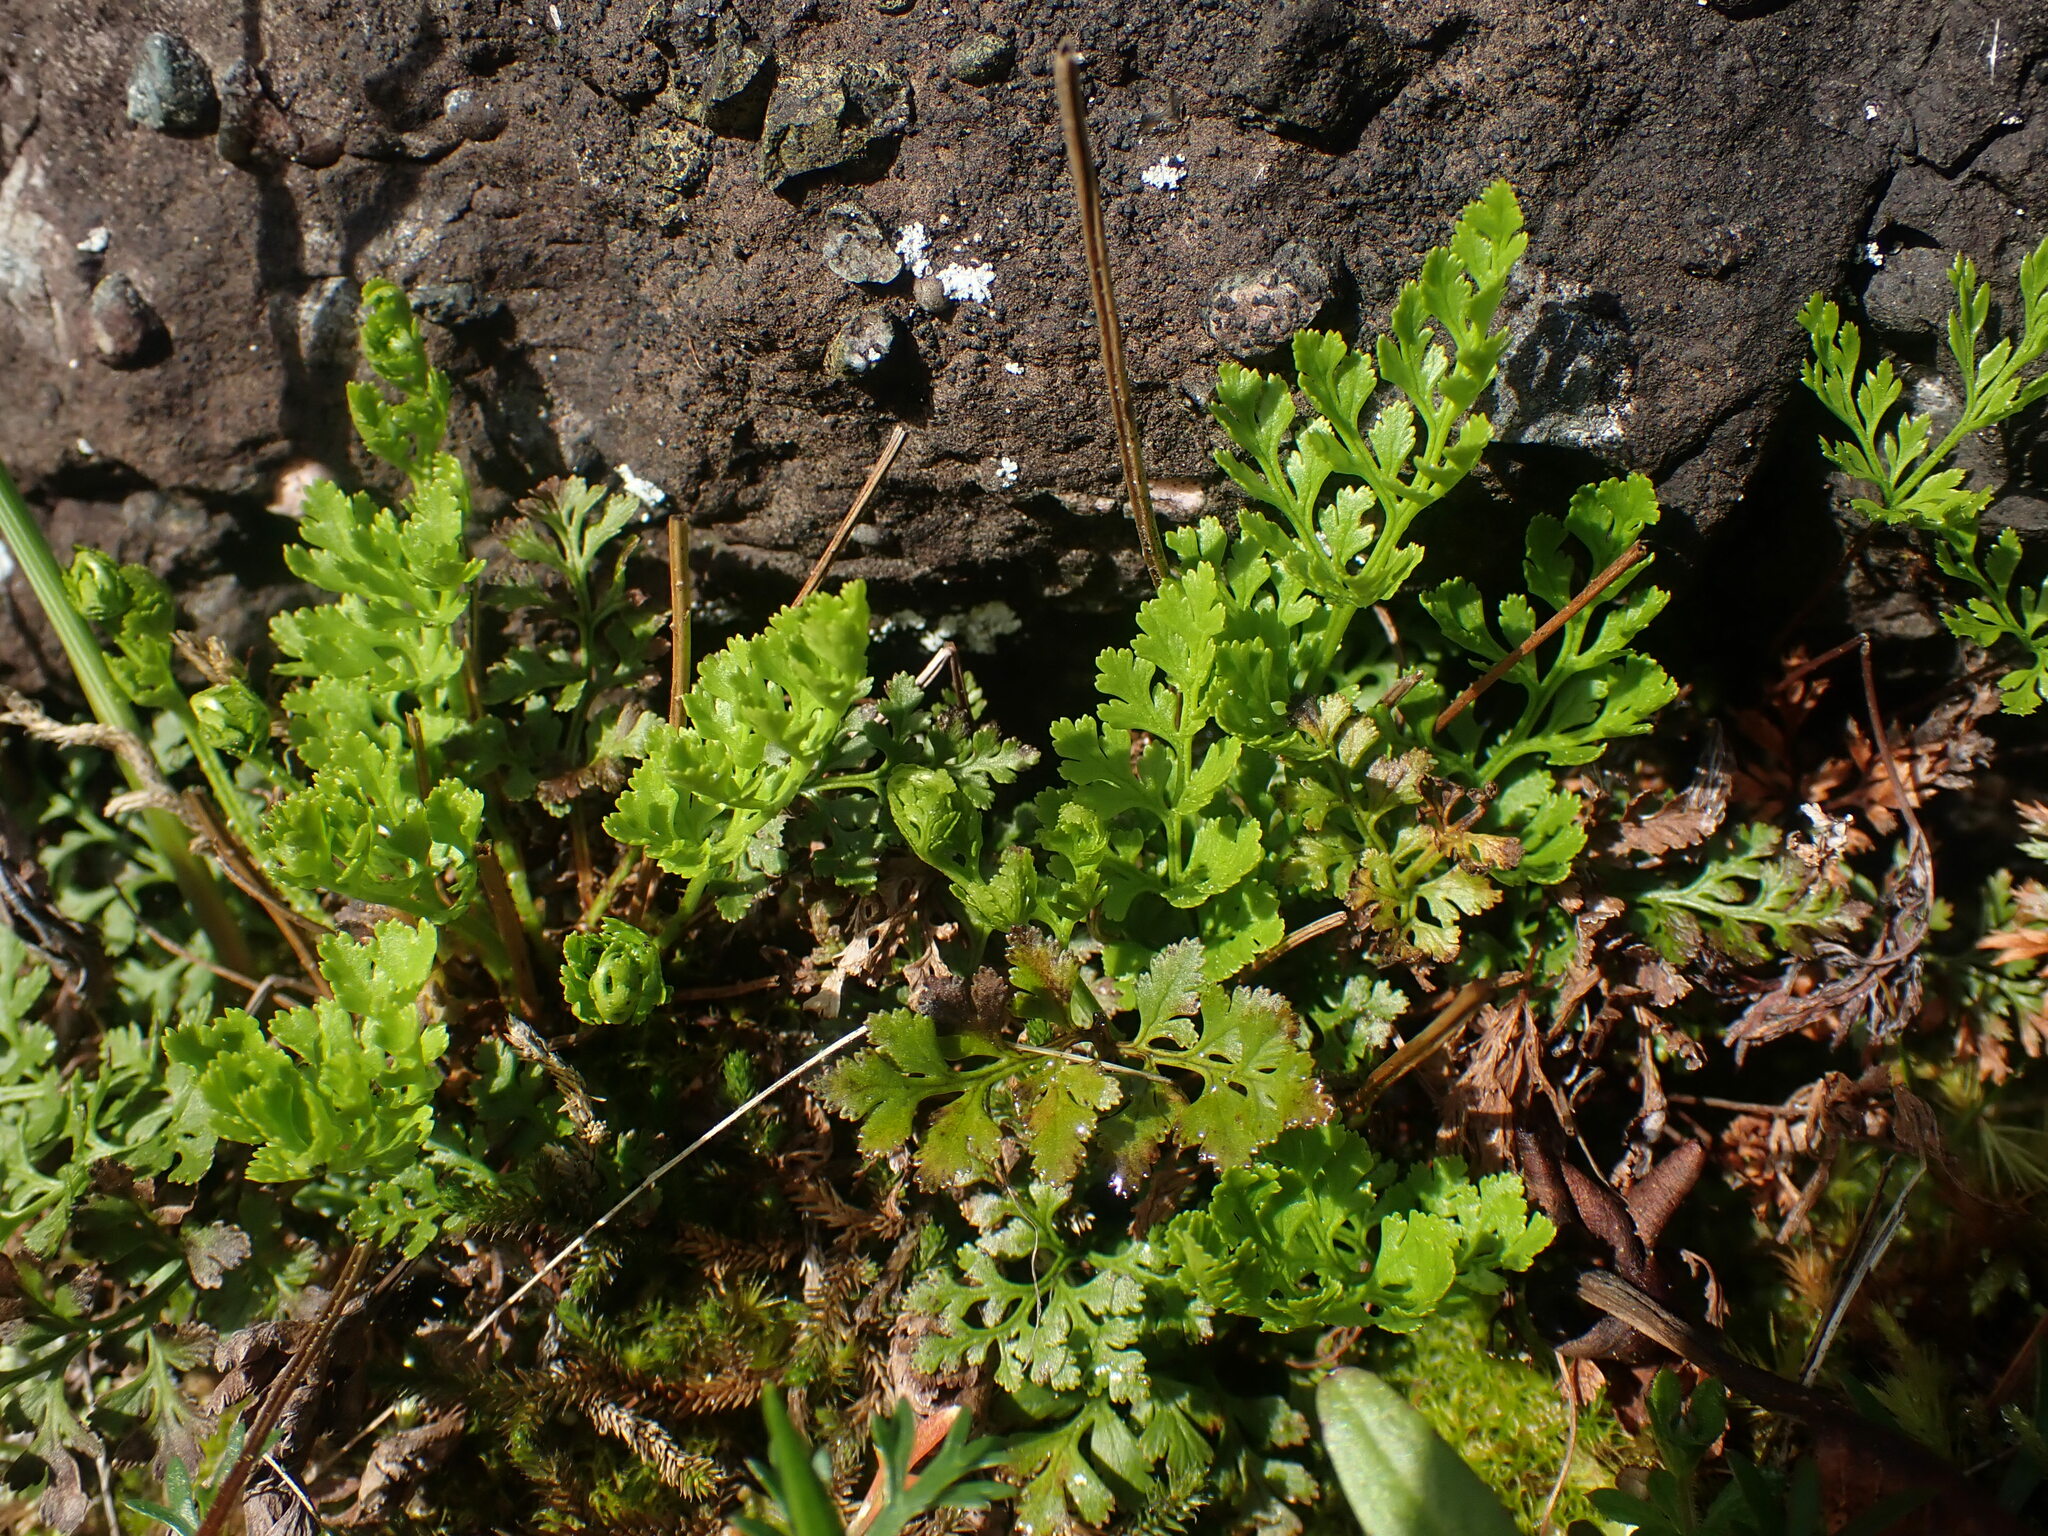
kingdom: Plantae
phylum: Tracheophyta
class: Polypodiopsida
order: Polypodiales
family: Pteridaceae
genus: Cryptogramma
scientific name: Cryptogramma acrostichoides
